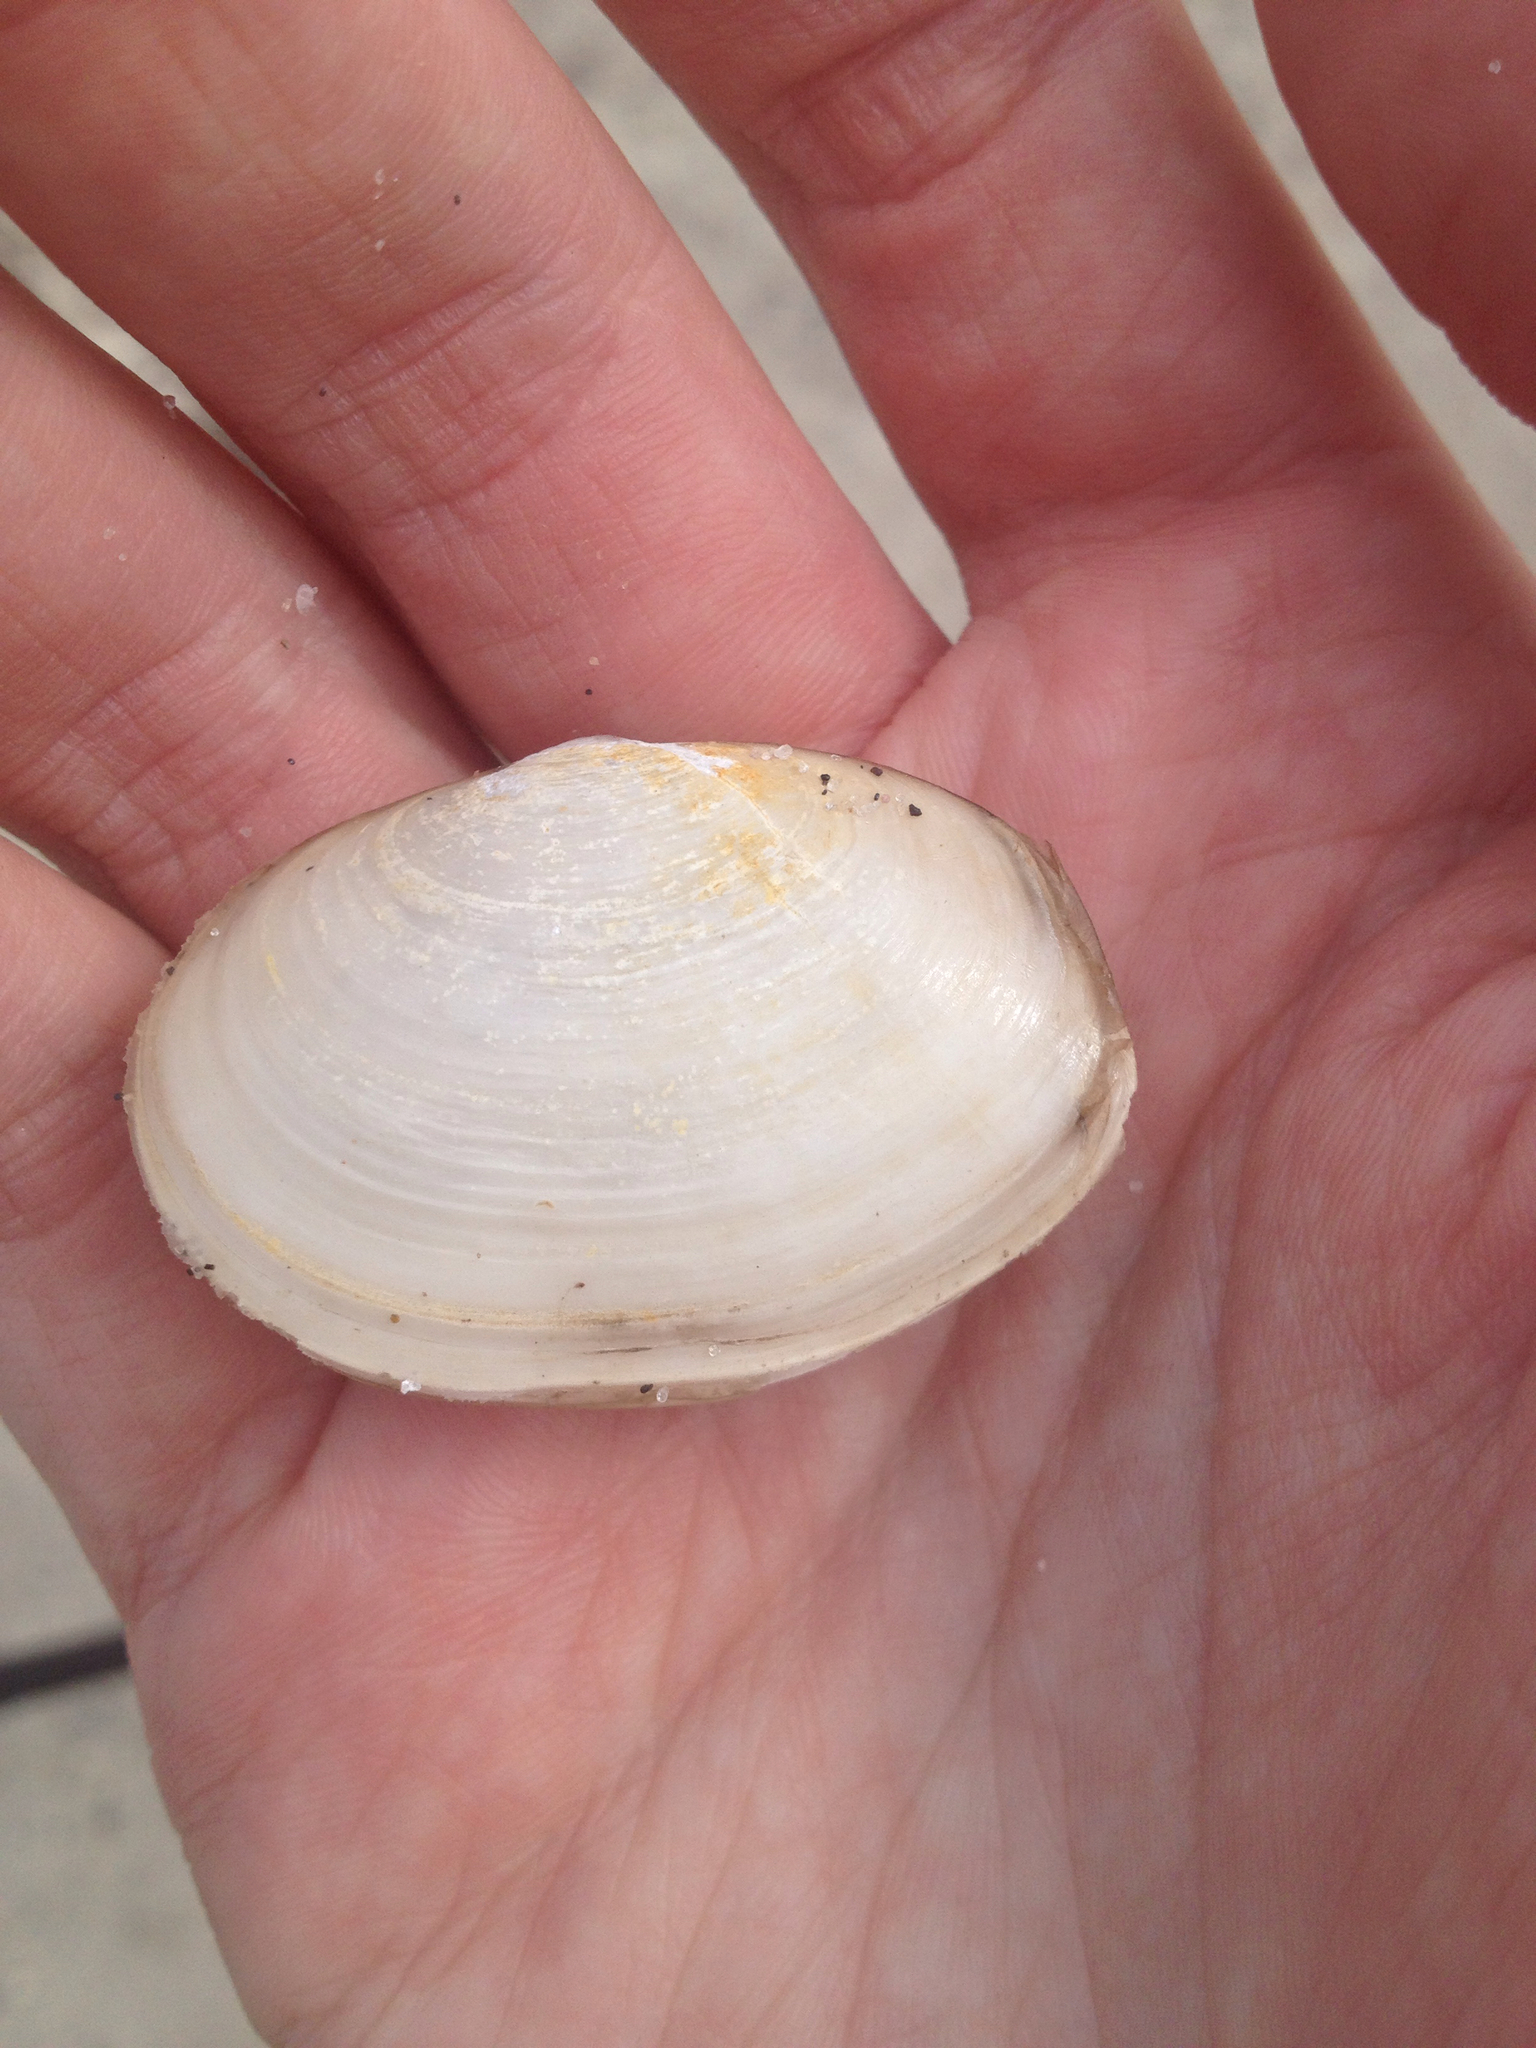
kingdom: Animalia
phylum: Mollusca
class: Bivalvia
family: Periplomatidae
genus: Cochlodesma
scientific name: Cochlodesma leanum
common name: Lea's spoon clam
